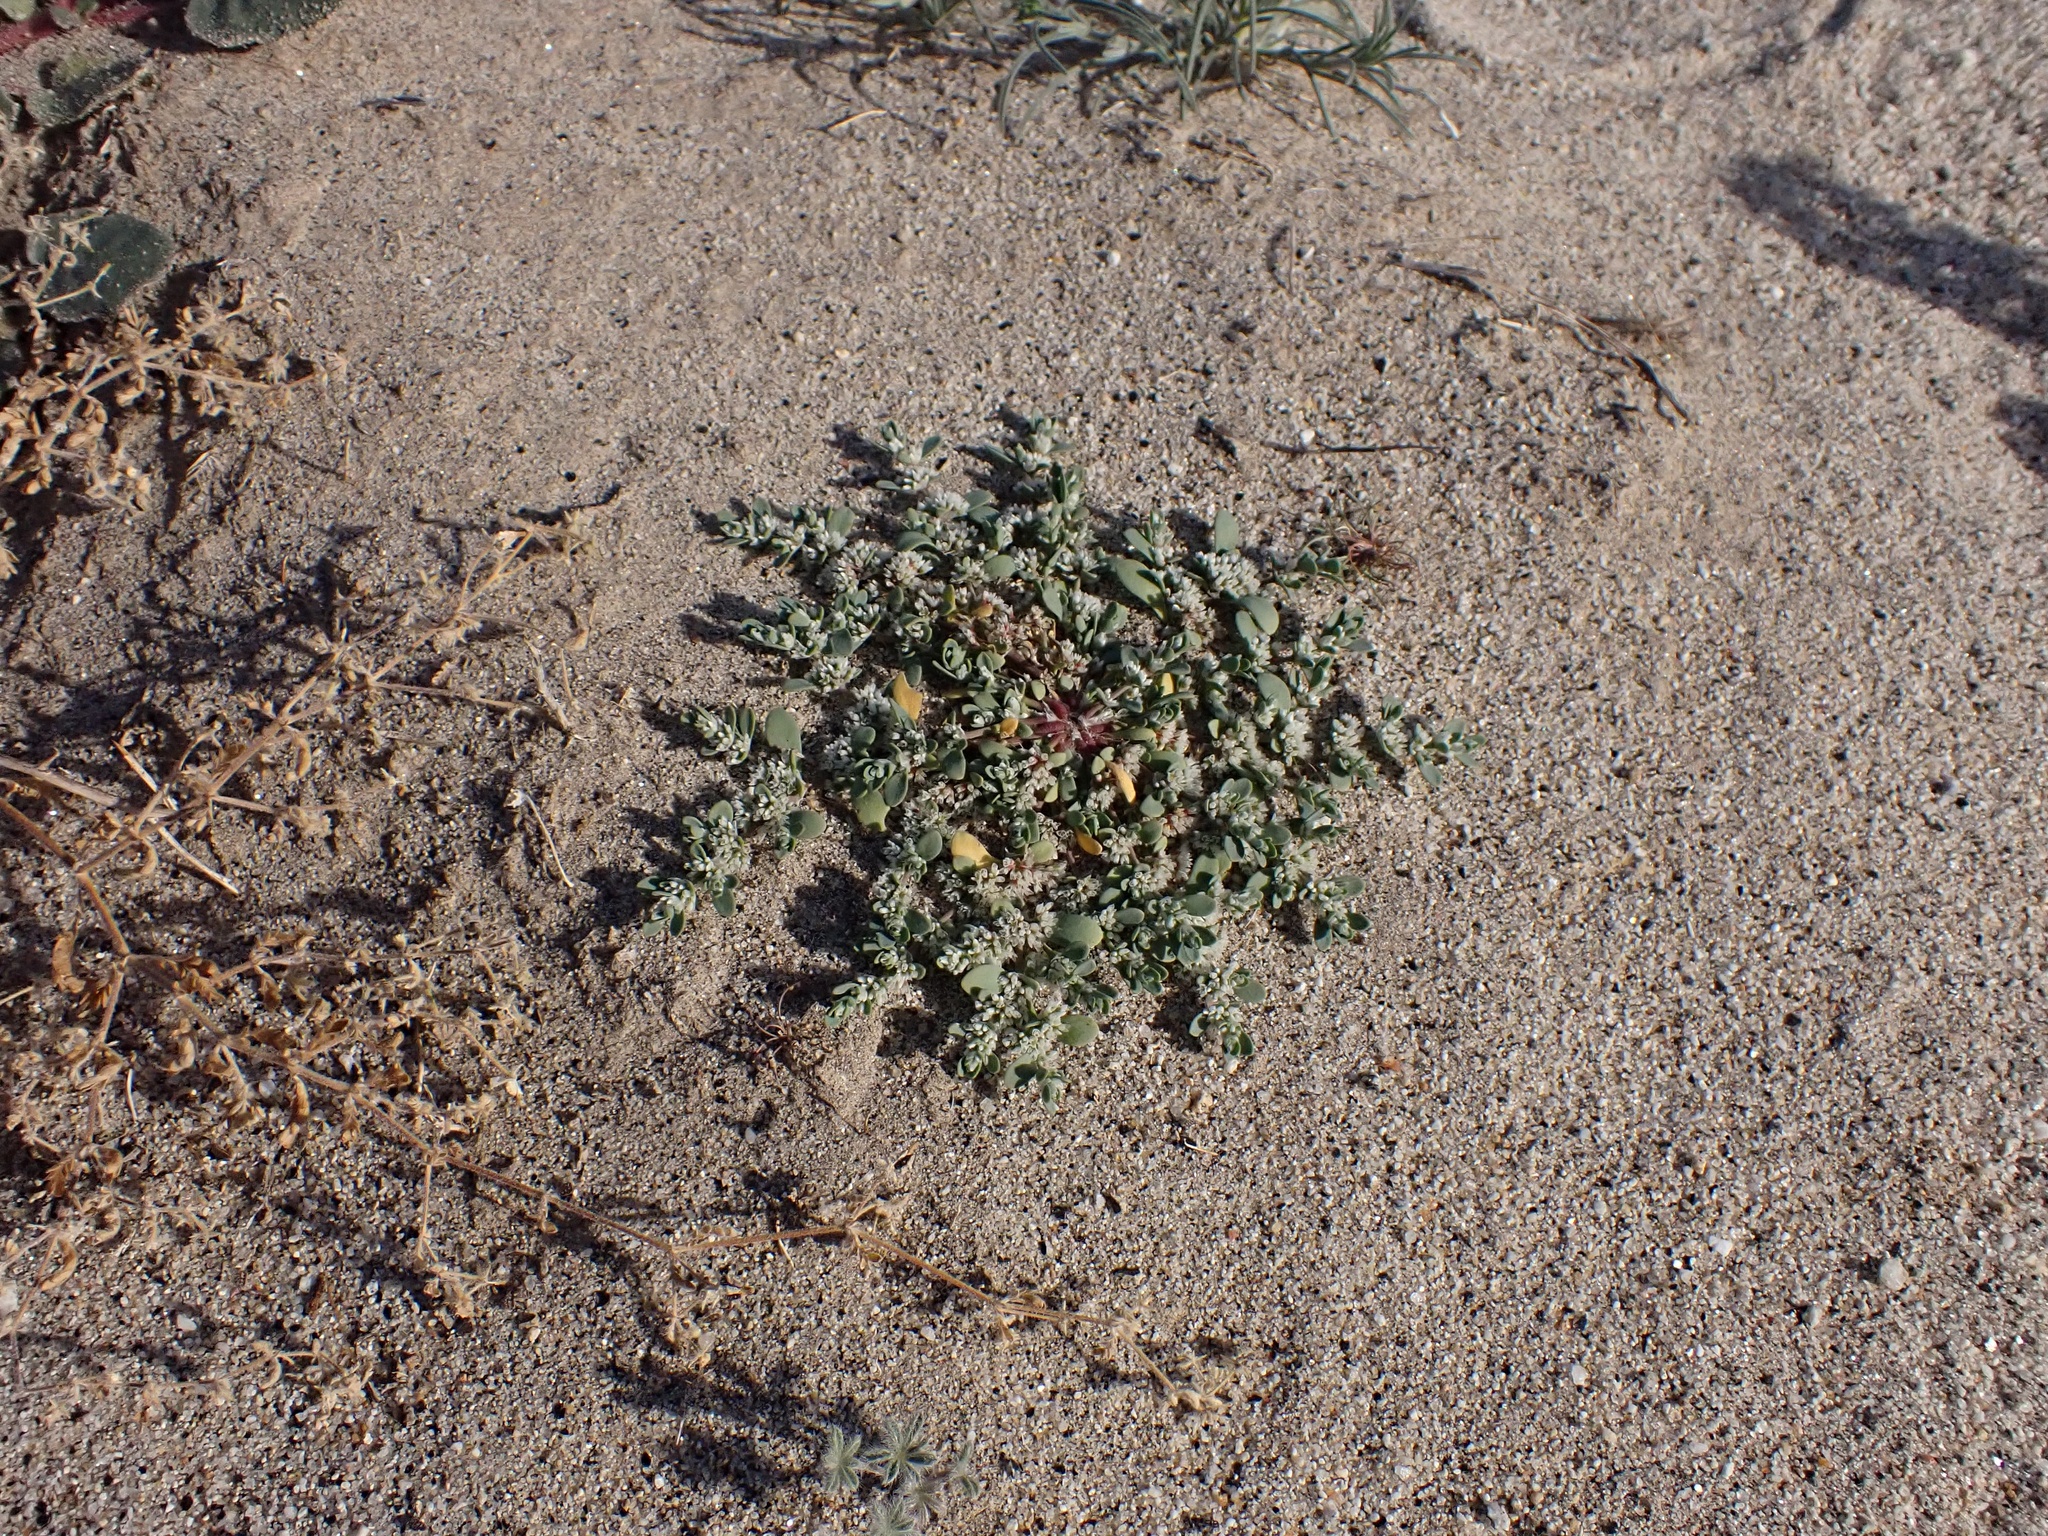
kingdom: Plantae
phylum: Tracheophyta
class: Magnoliopsida
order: Caryophyllales
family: Caryophyllaceae
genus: Achyronychia
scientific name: Achyronychia cooperi
